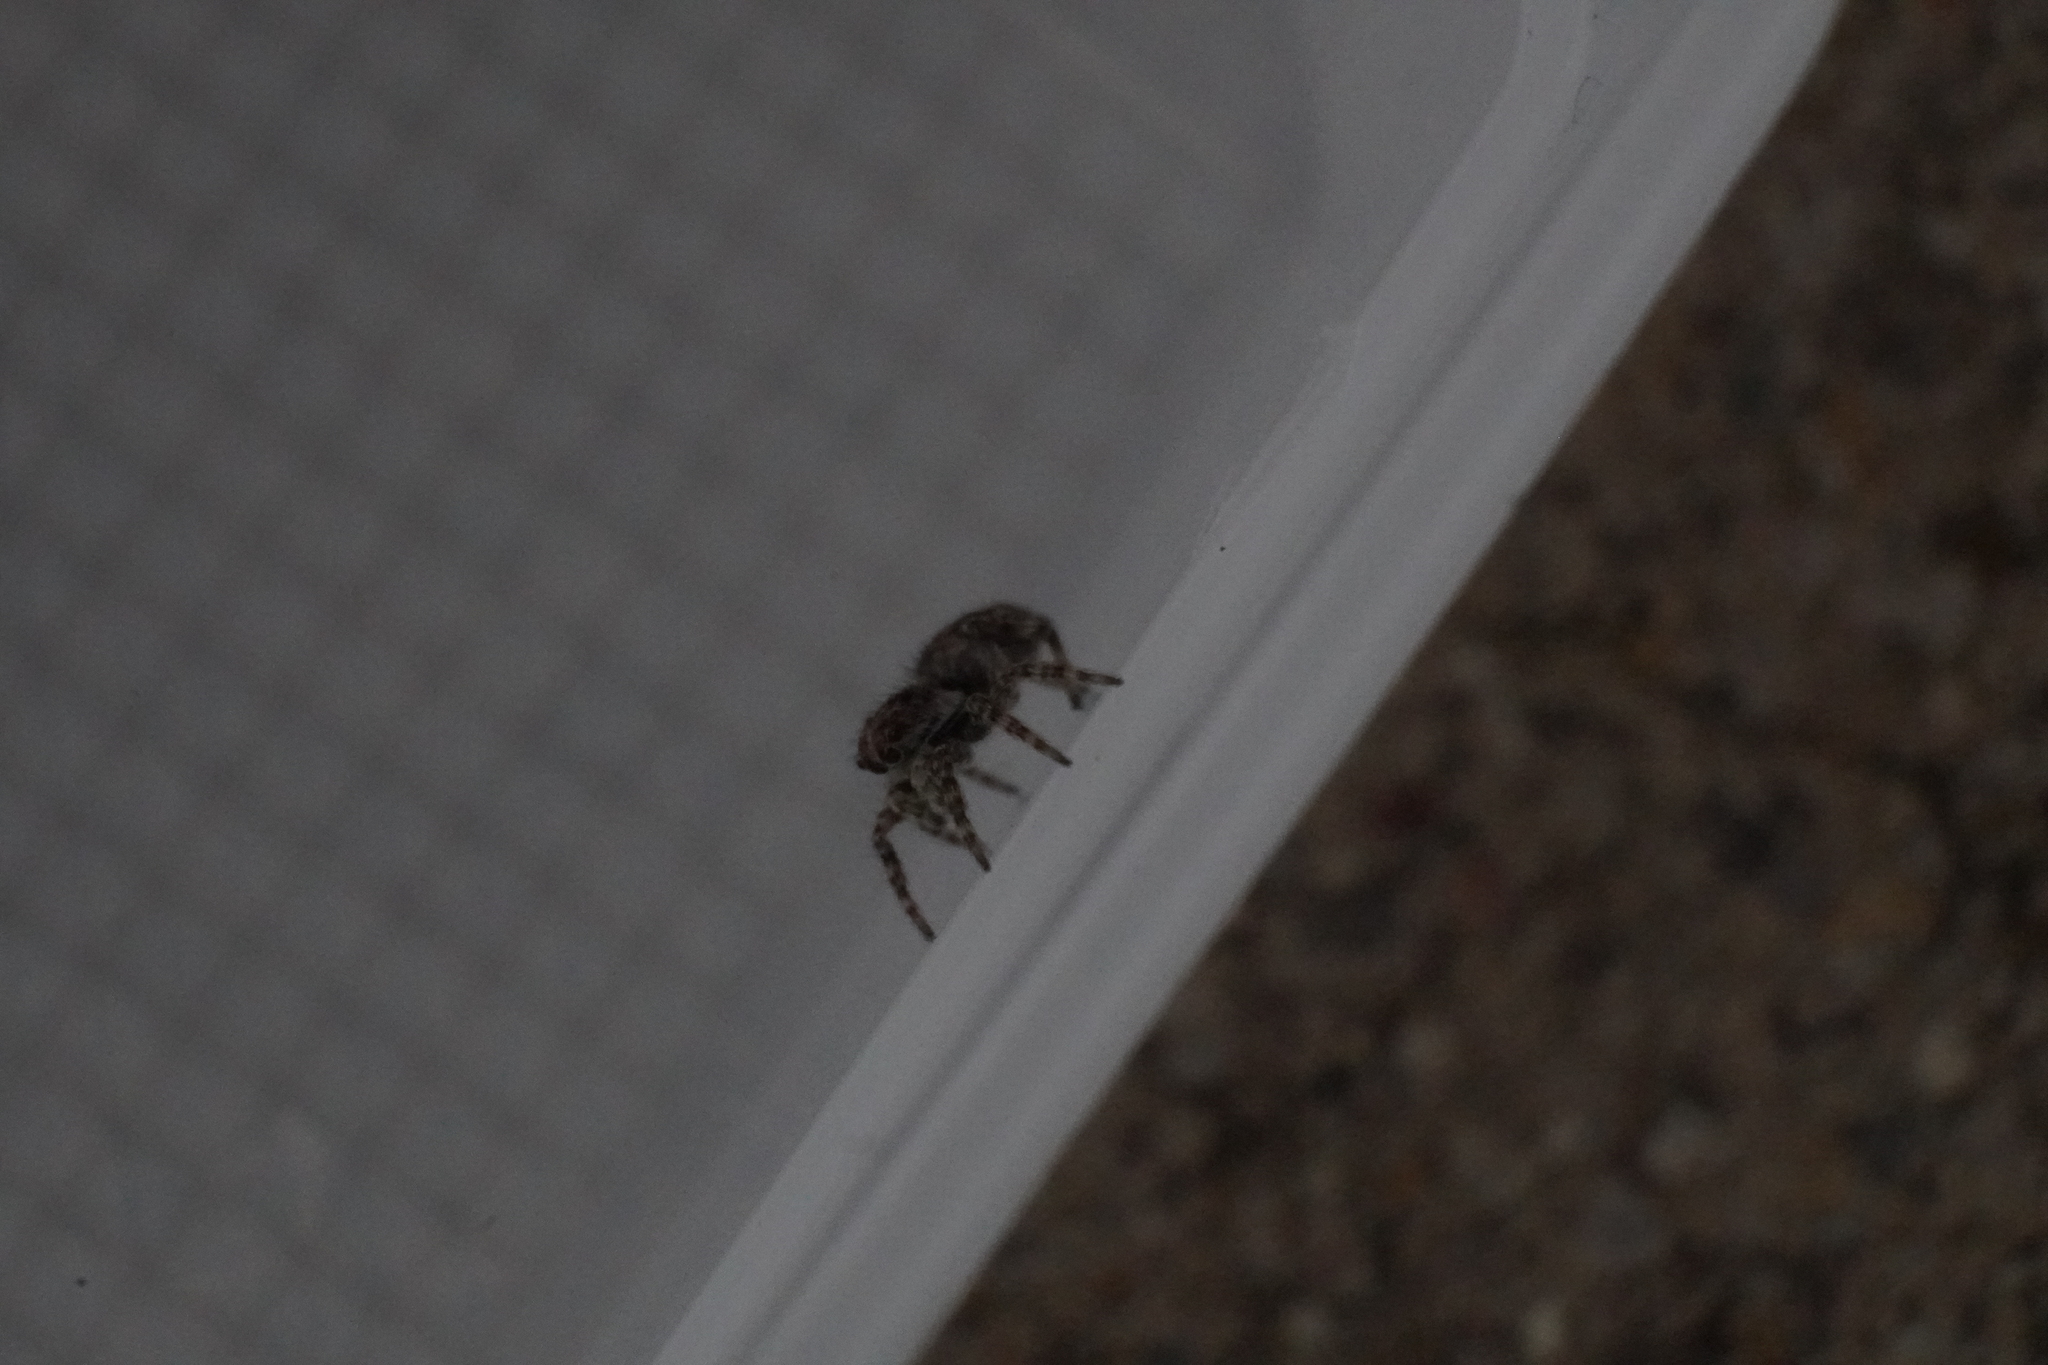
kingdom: Animalia
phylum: Arthropoda
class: Arachnida
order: Araneae
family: Salticidae
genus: Attulus
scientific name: Attulus fasciger
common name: Asiatic wall jumping spider
